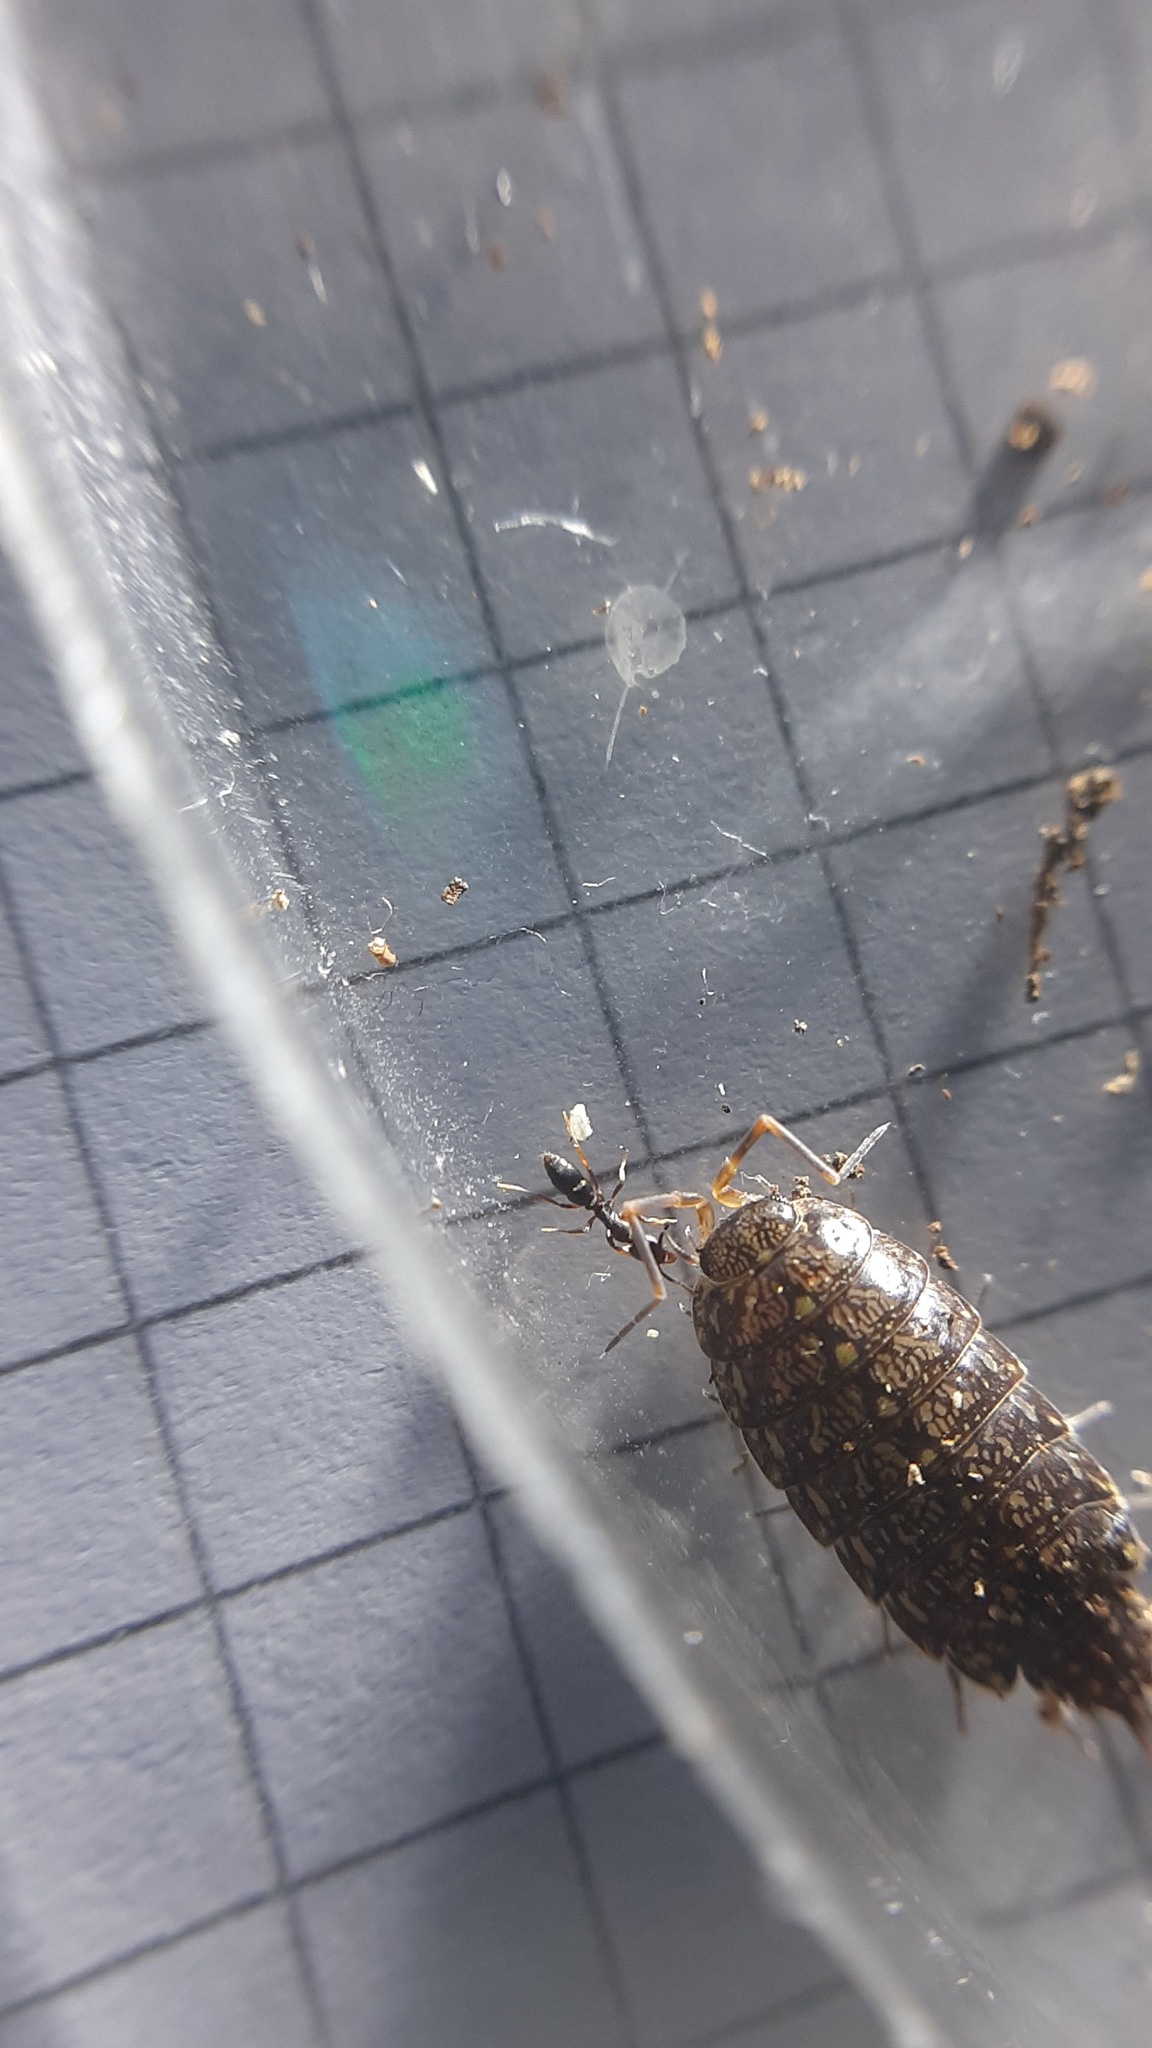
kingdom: Animalia
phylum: Arthropoda
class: Malacostraca
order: Isopoda
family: Philosciidae
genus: Philoscia
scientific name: Philoscia affinis
